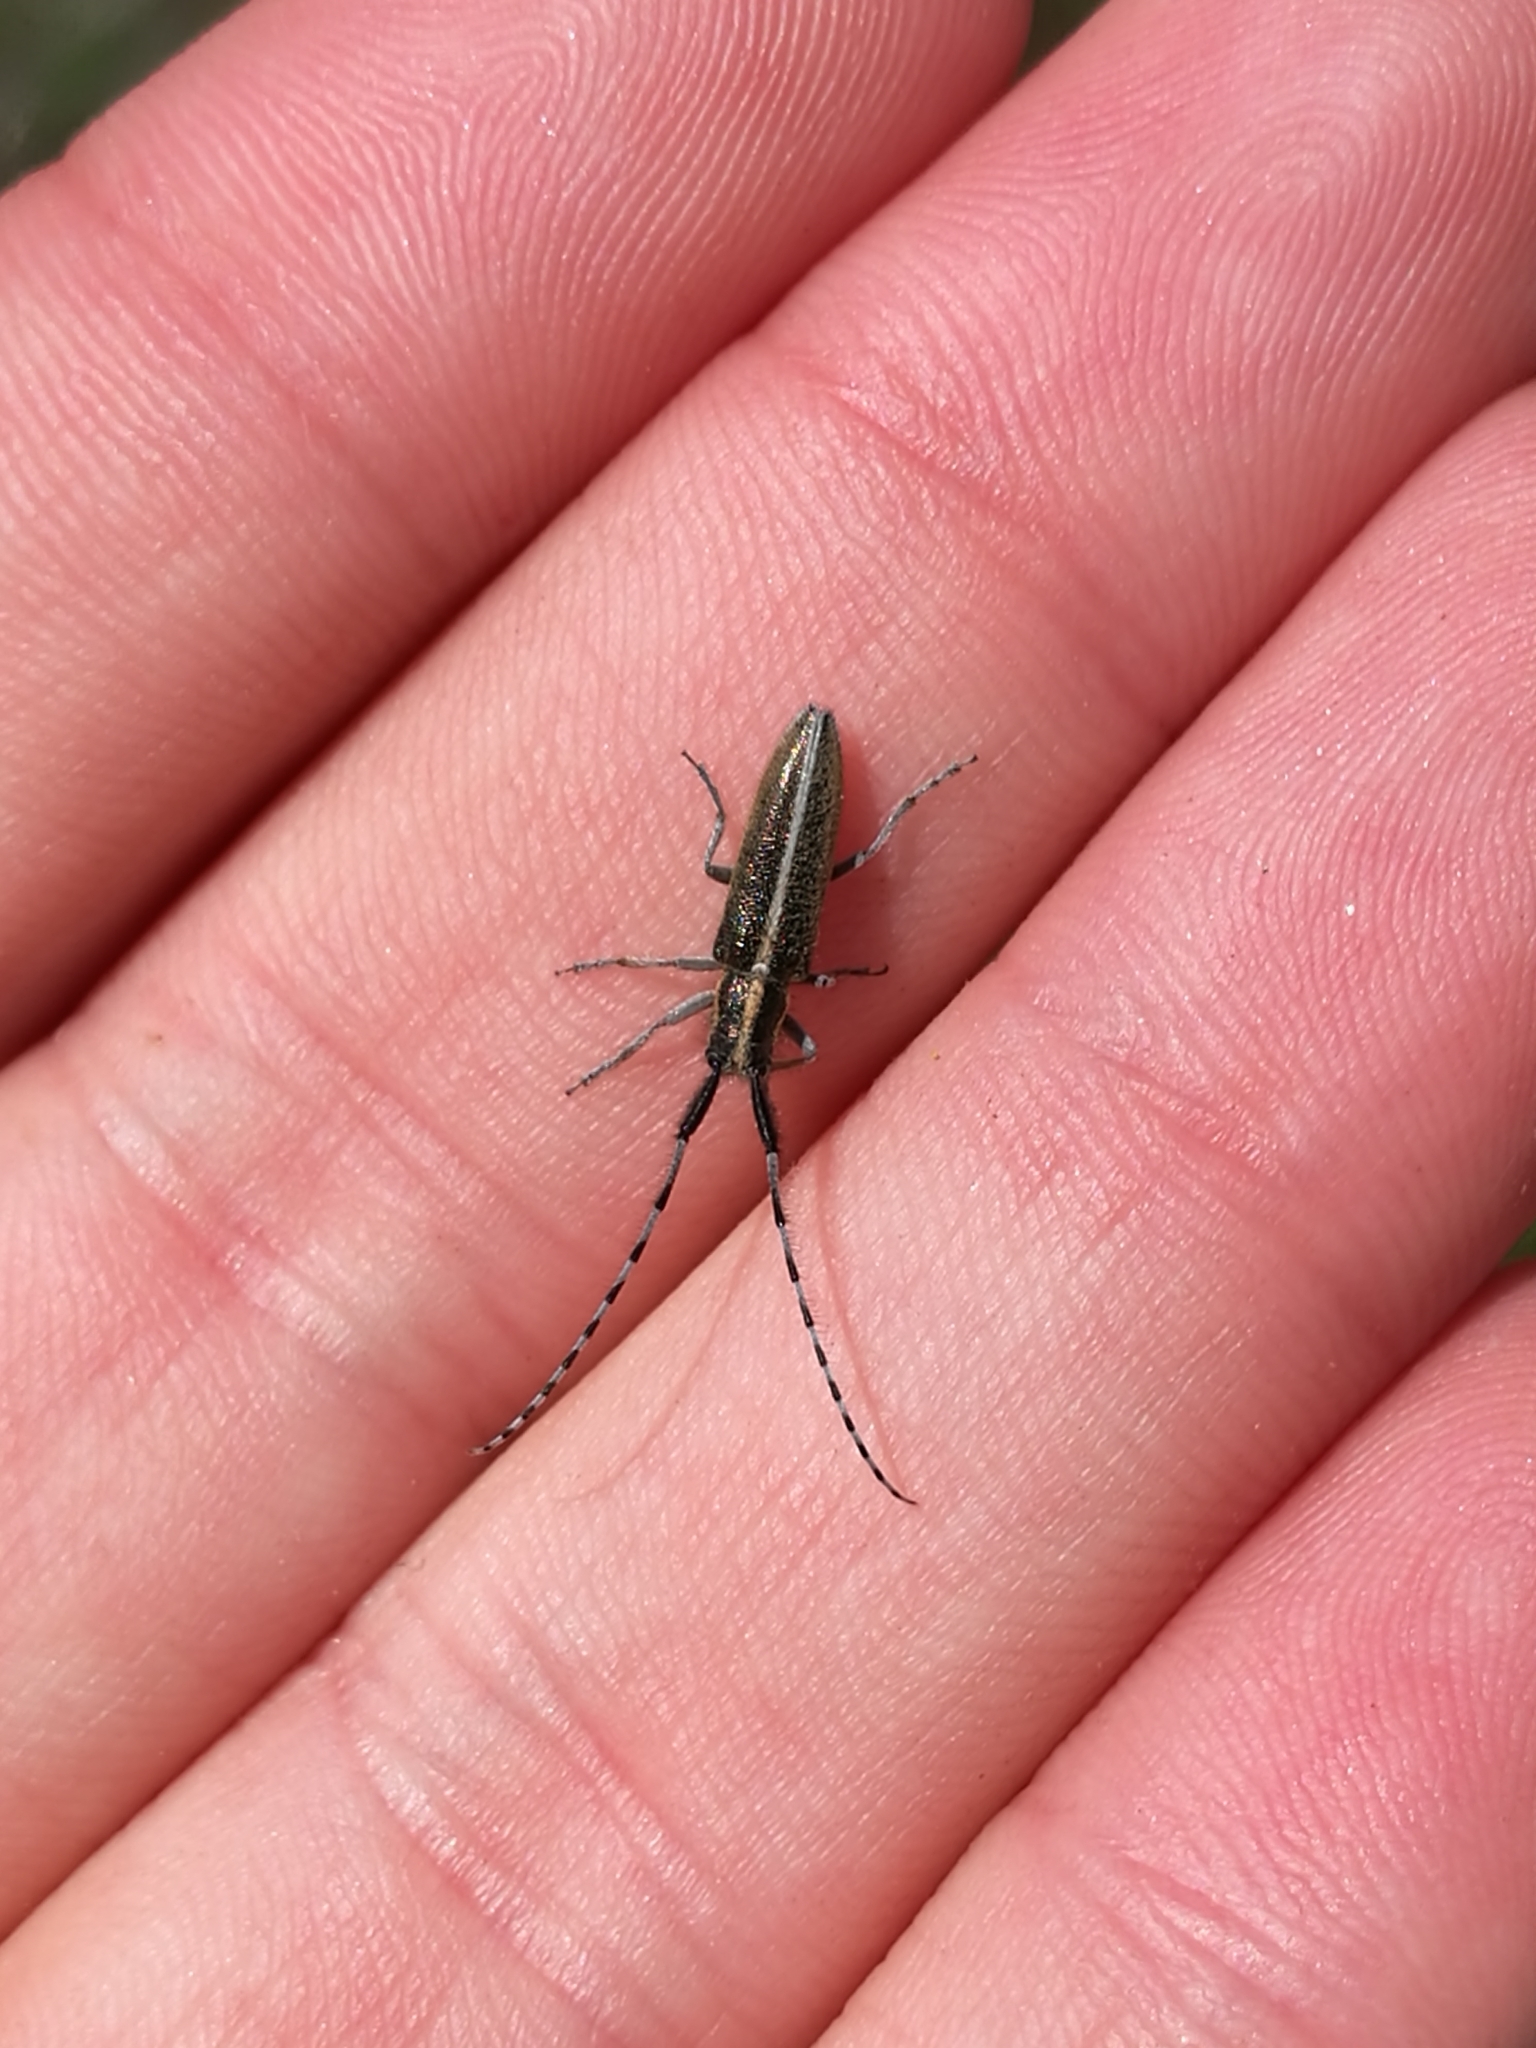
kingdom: Animalia
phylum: Arthropoda
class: Insecta
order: Coleoptera
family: Cerambycidae
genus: Agapanthia
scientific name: Agapanthia suturalis
